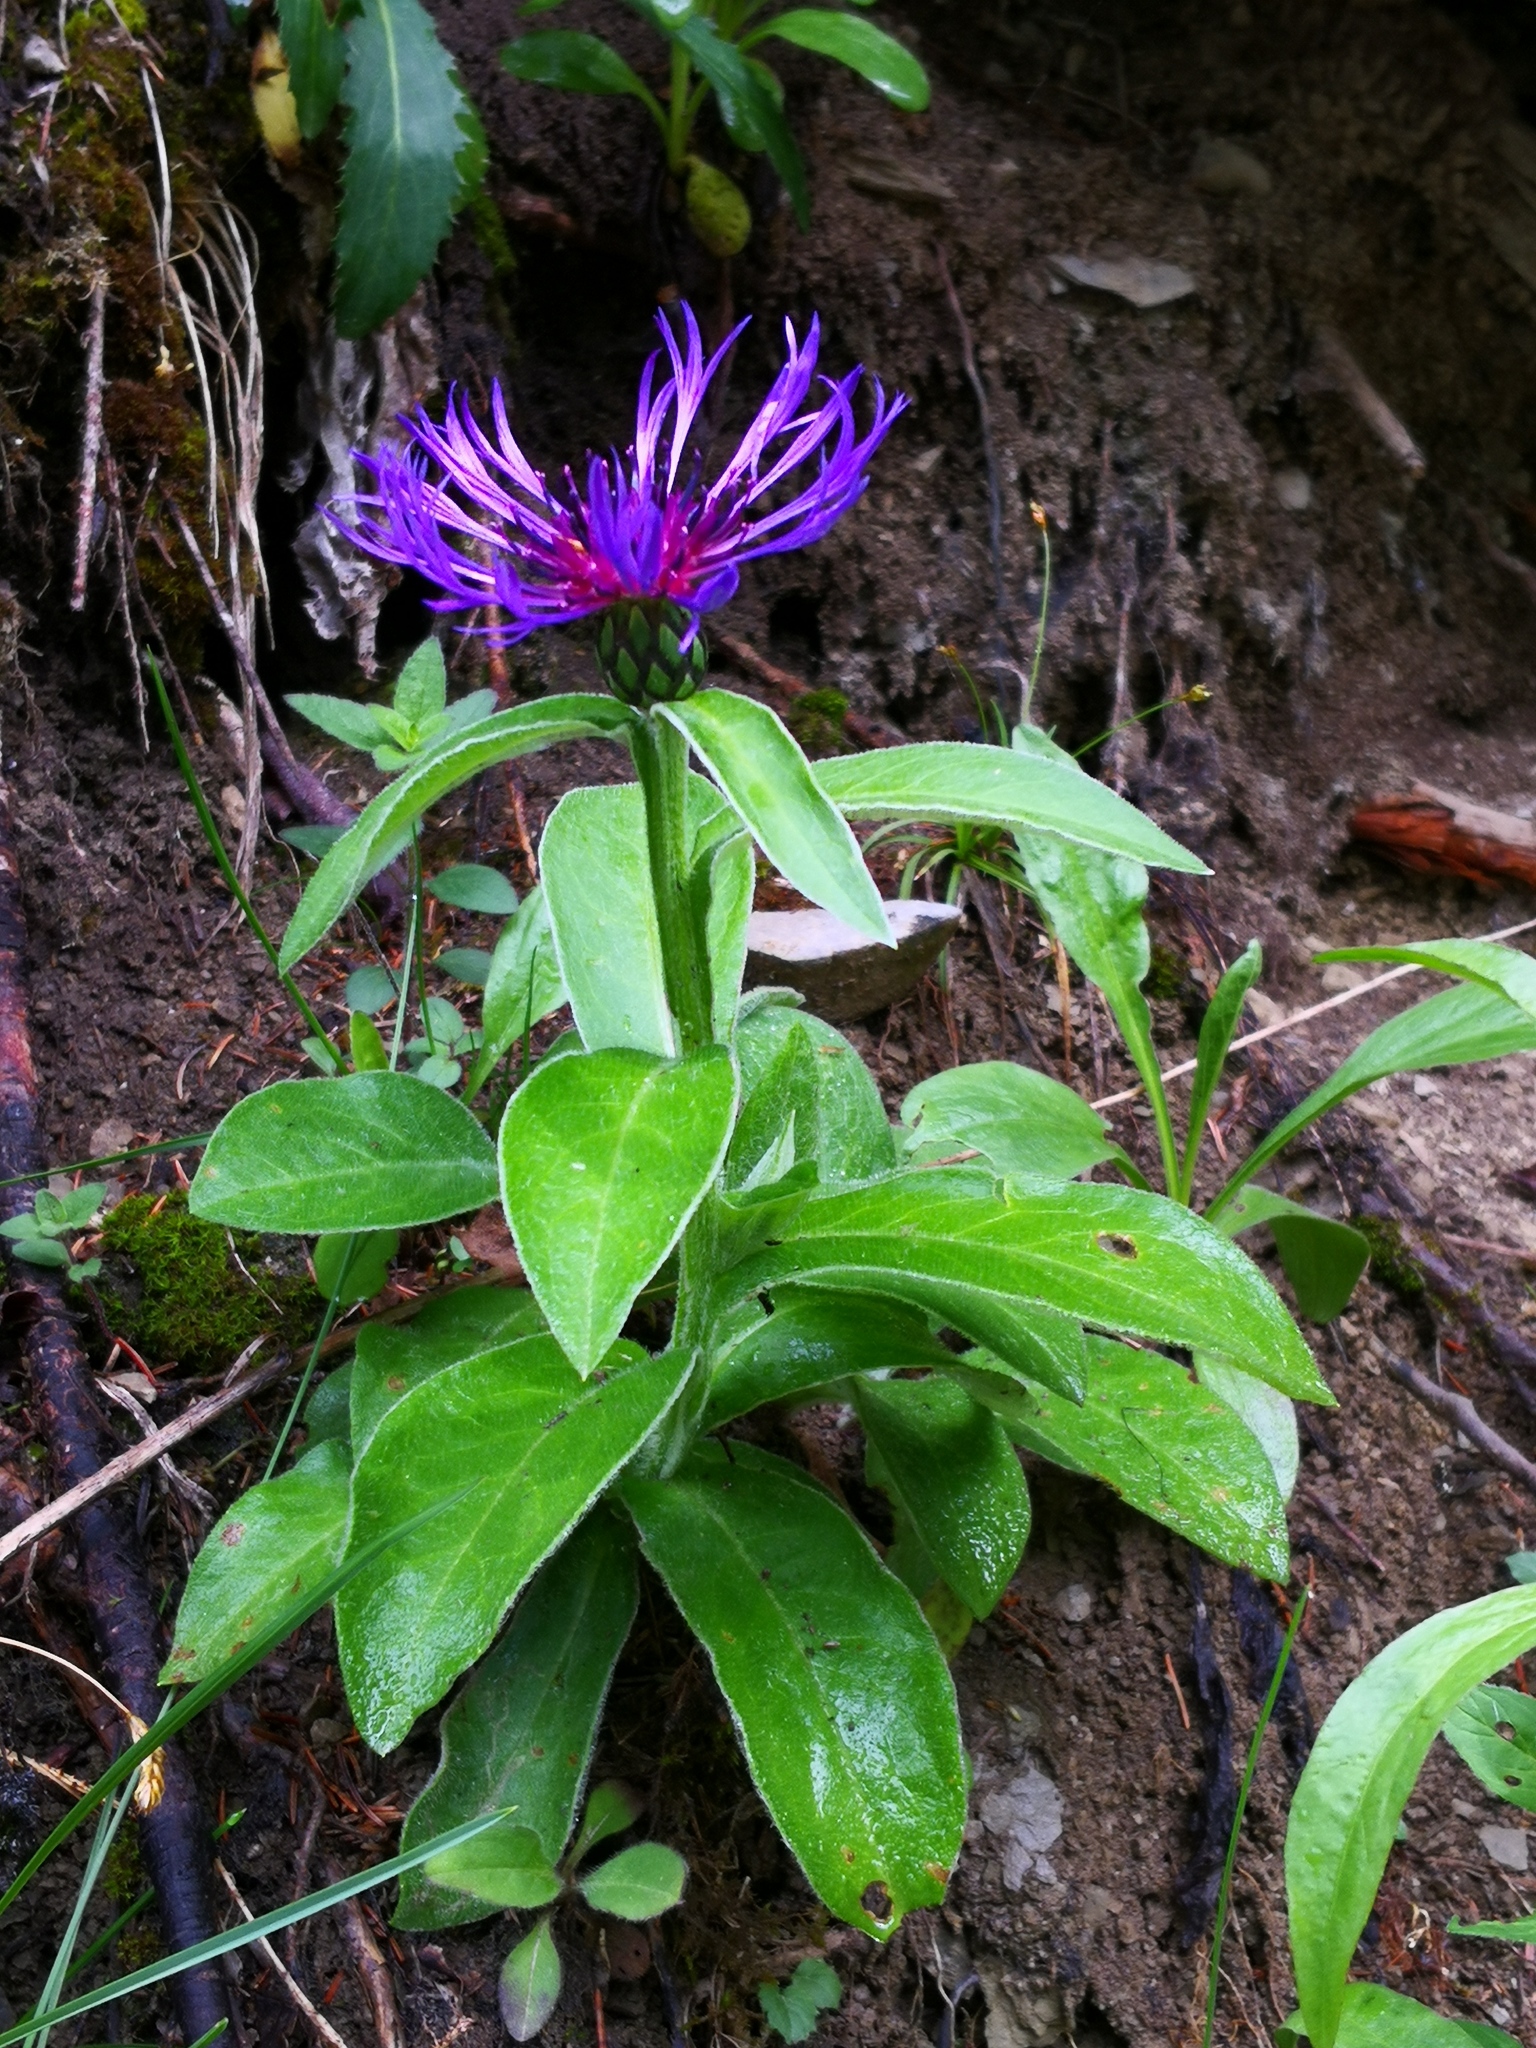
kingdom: Plantae
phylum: Tracheophyta
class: Magnoliopsida
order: Asterales
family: Asteraceae
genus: Centaurea
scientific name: Centaurea montana
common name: Perennial cornflower
